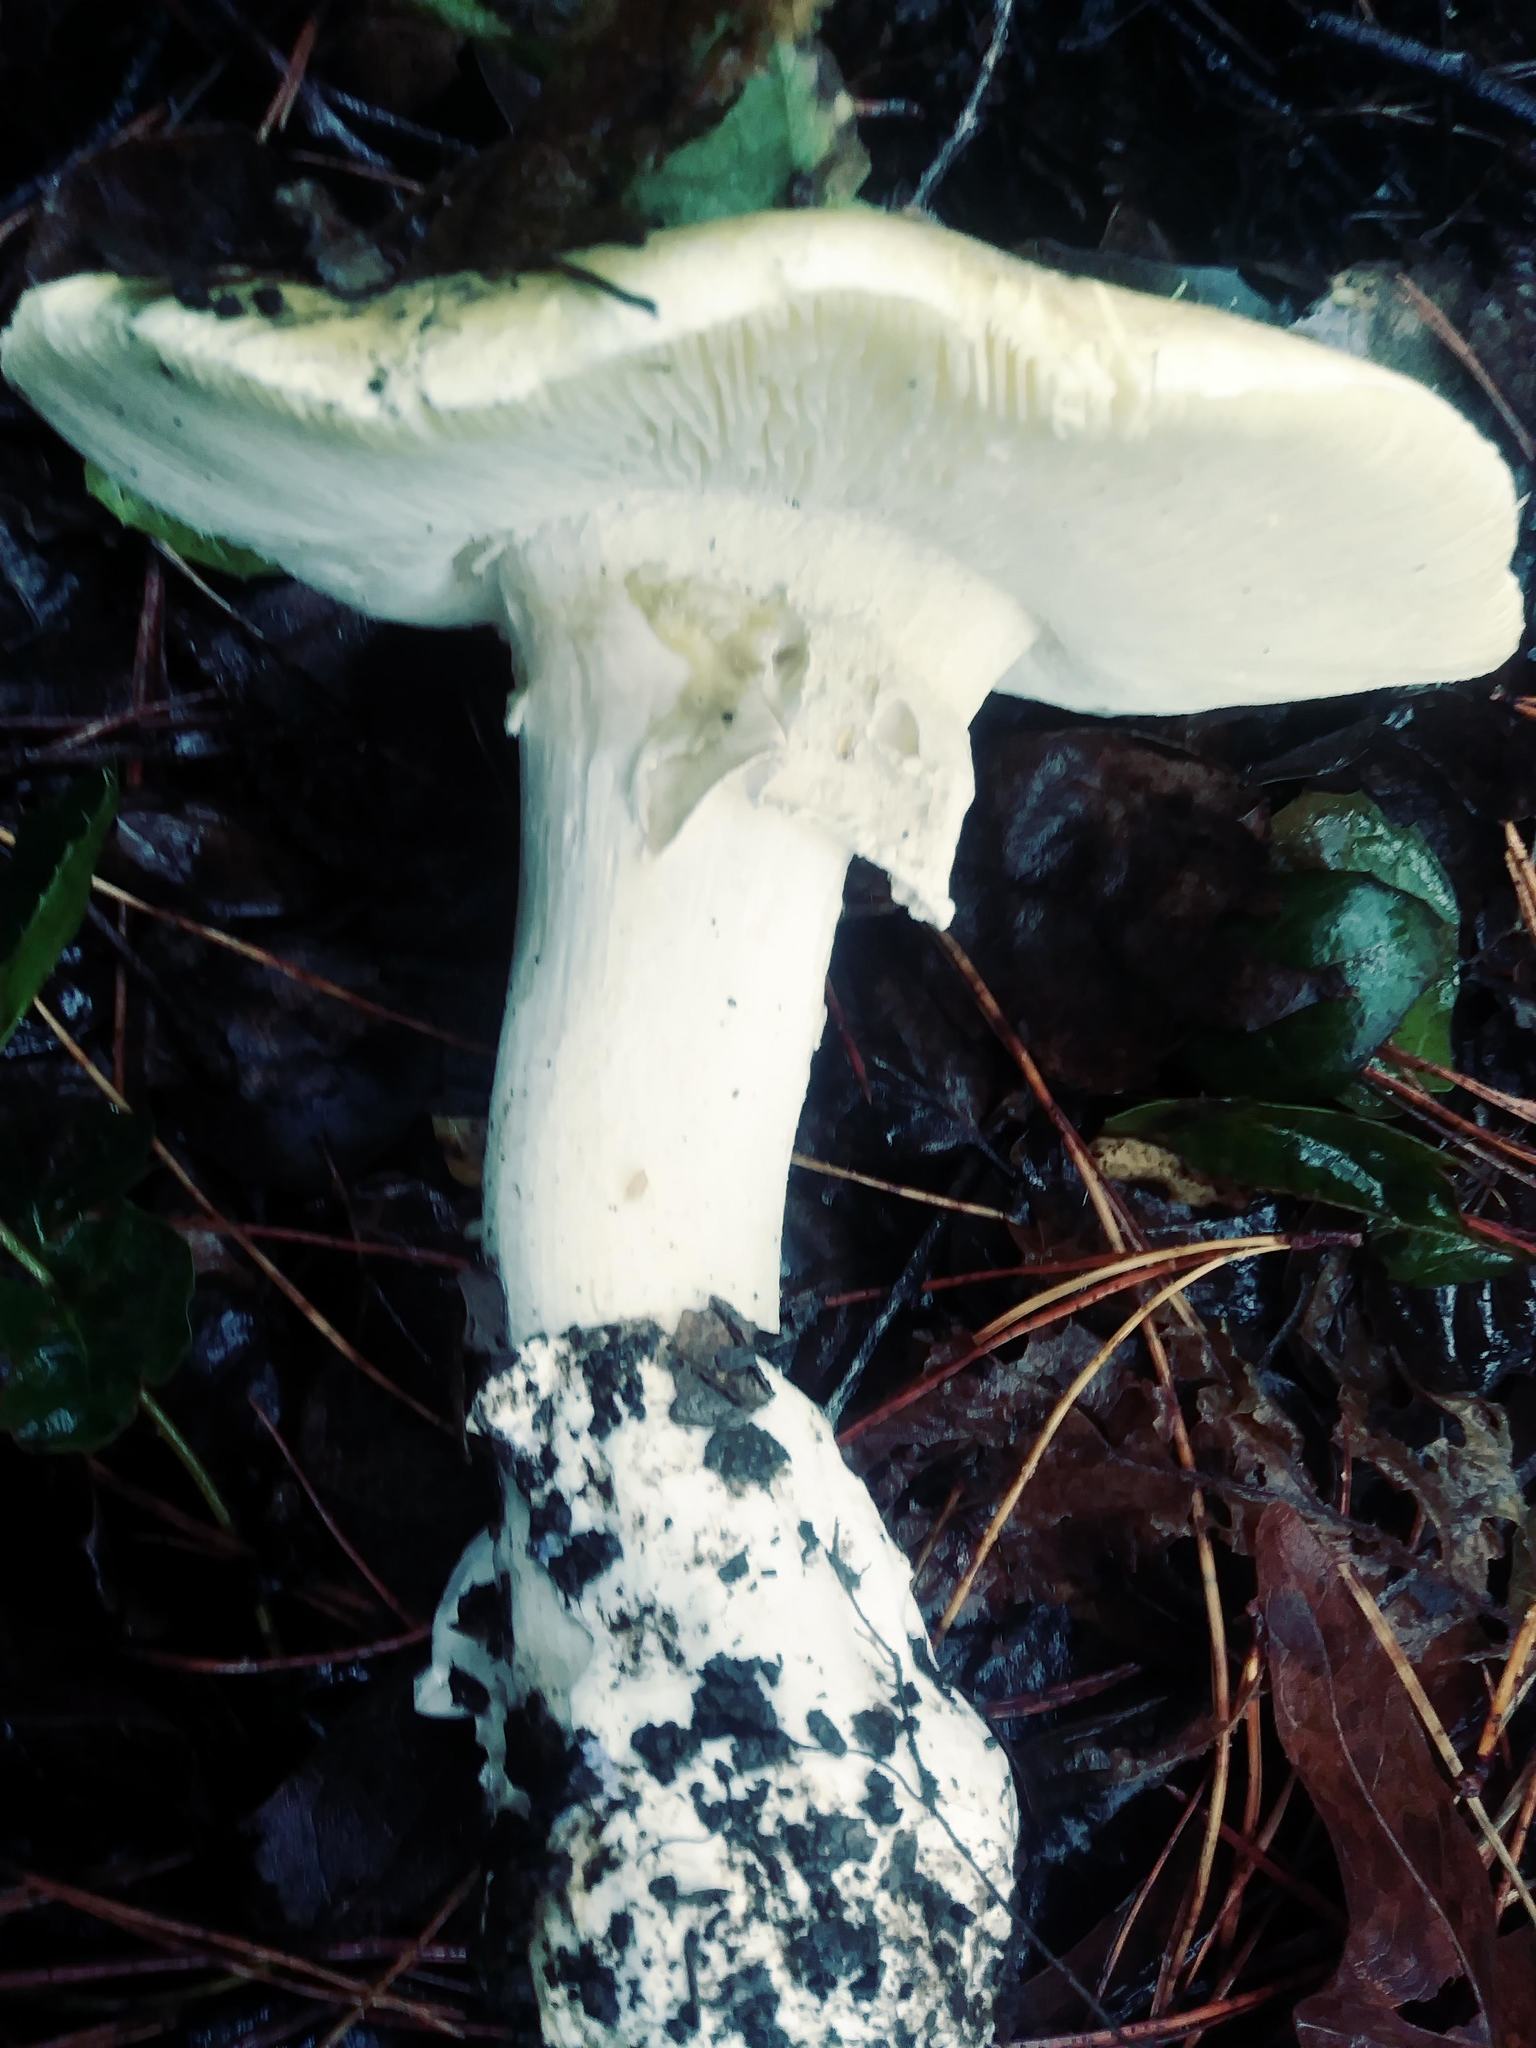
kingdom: Fungi
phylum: Basidiomycota
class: Agaricomycetes
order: Agaricales
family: Amanitaceae
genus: Amanita
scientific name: Amanita phalloides
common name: Death cap
